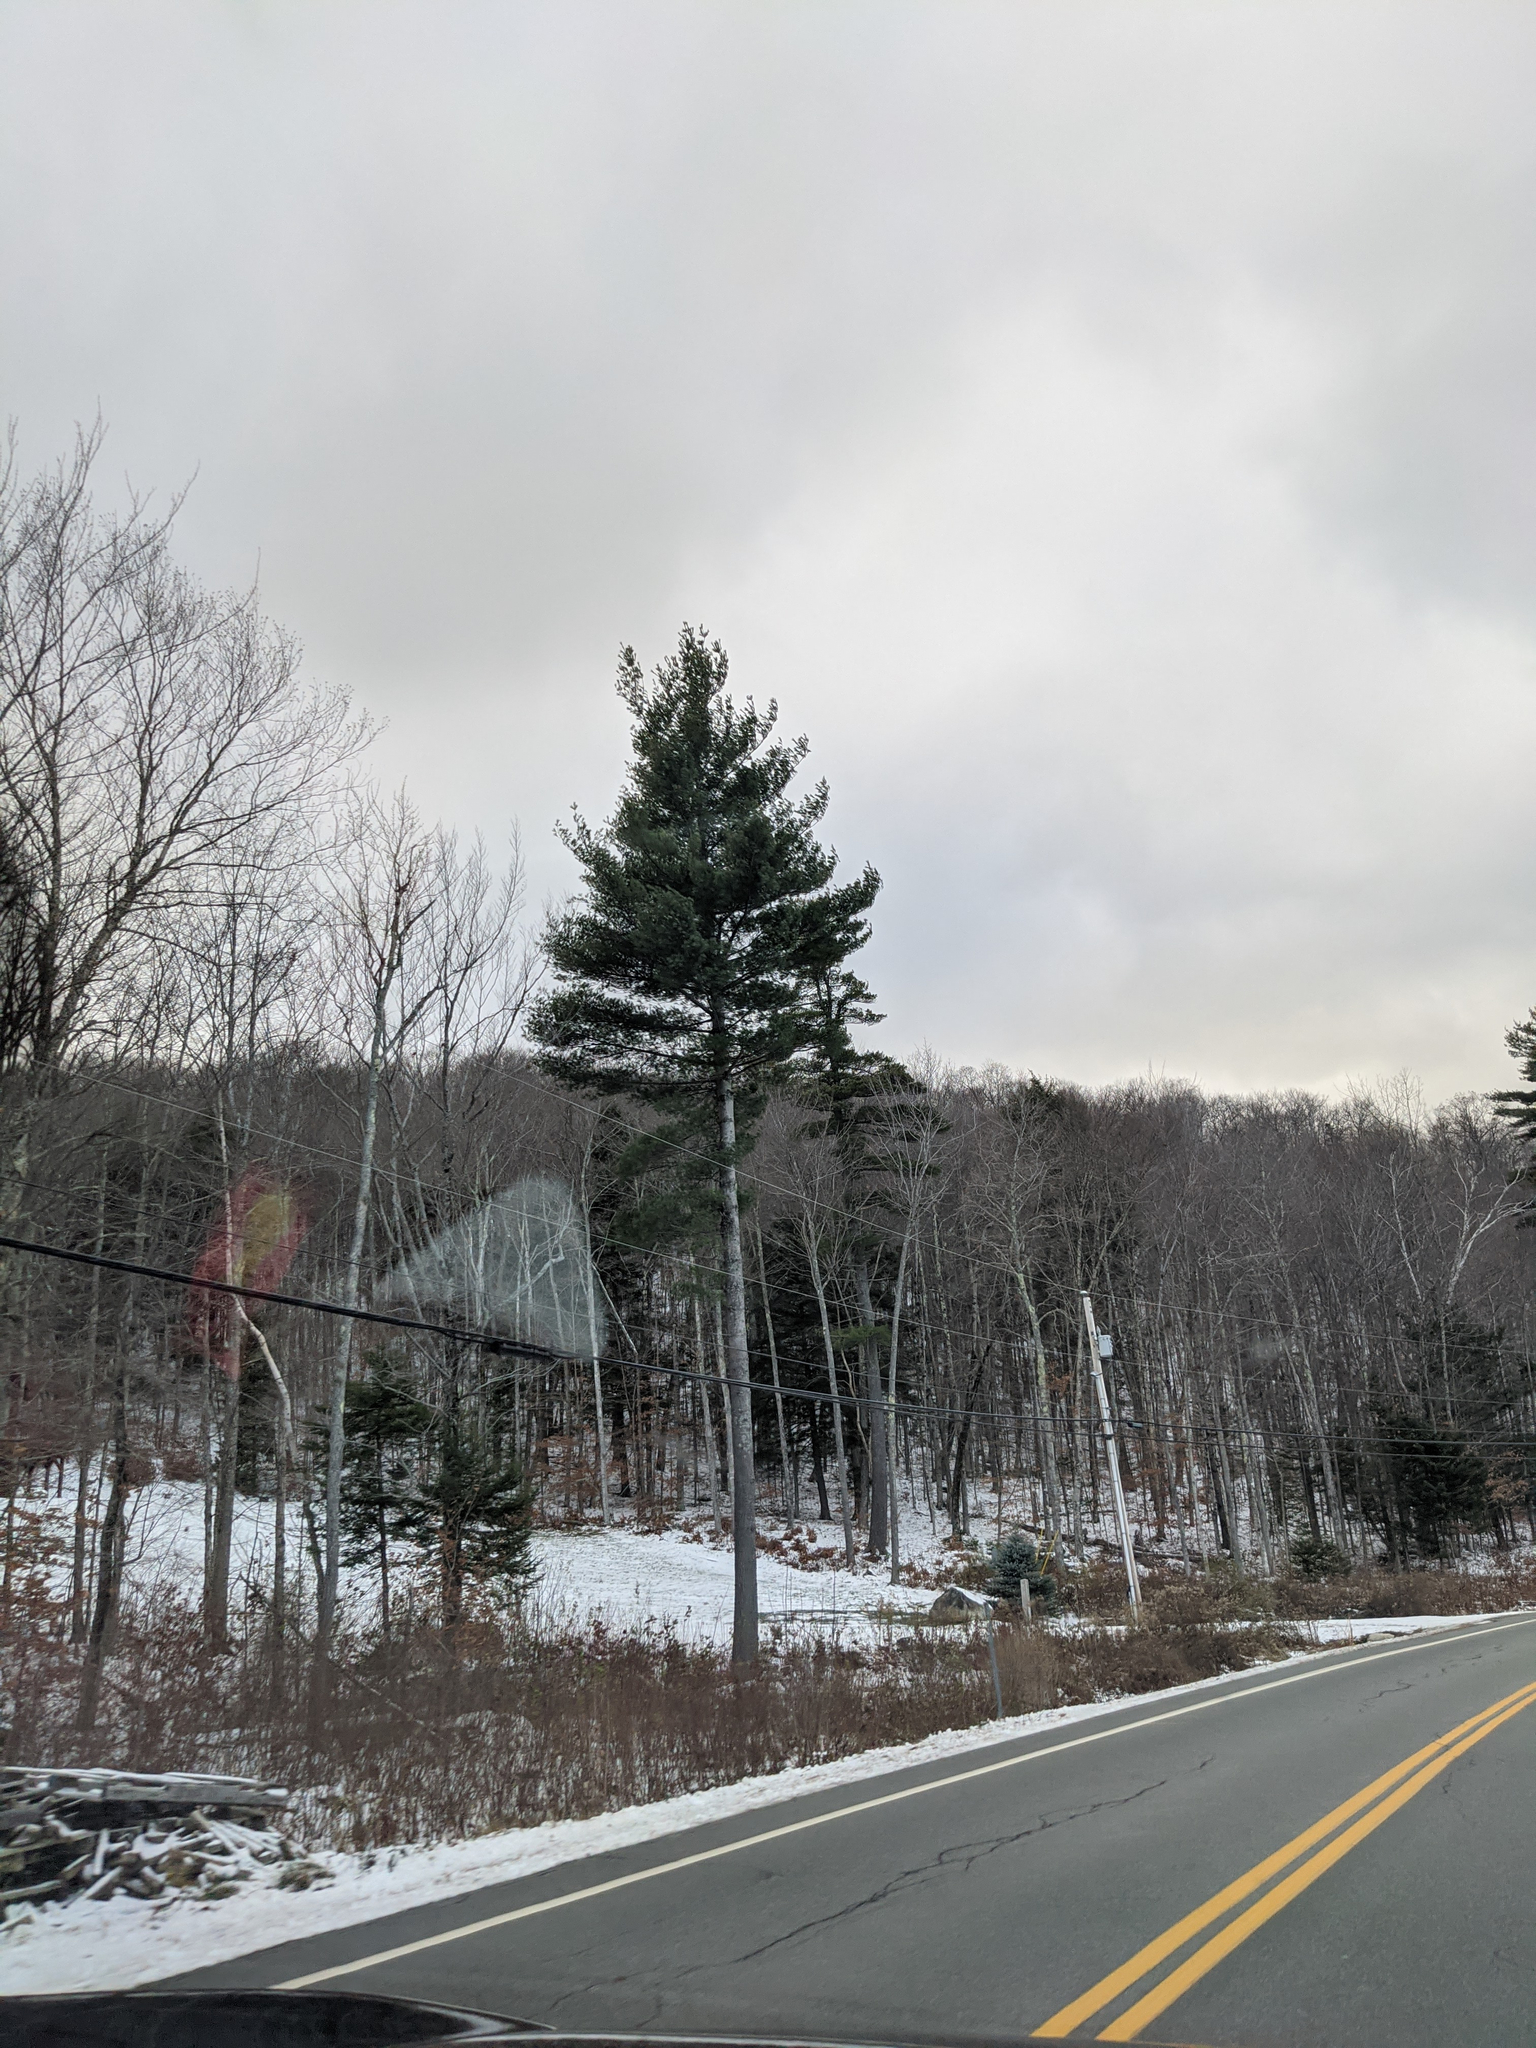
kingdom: Plantae
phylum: Tracheophyta
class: Pinopsida
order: Pinales
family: Pinaceae
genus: Pinus
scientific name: Pinus strobus
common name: Weymouth pine
